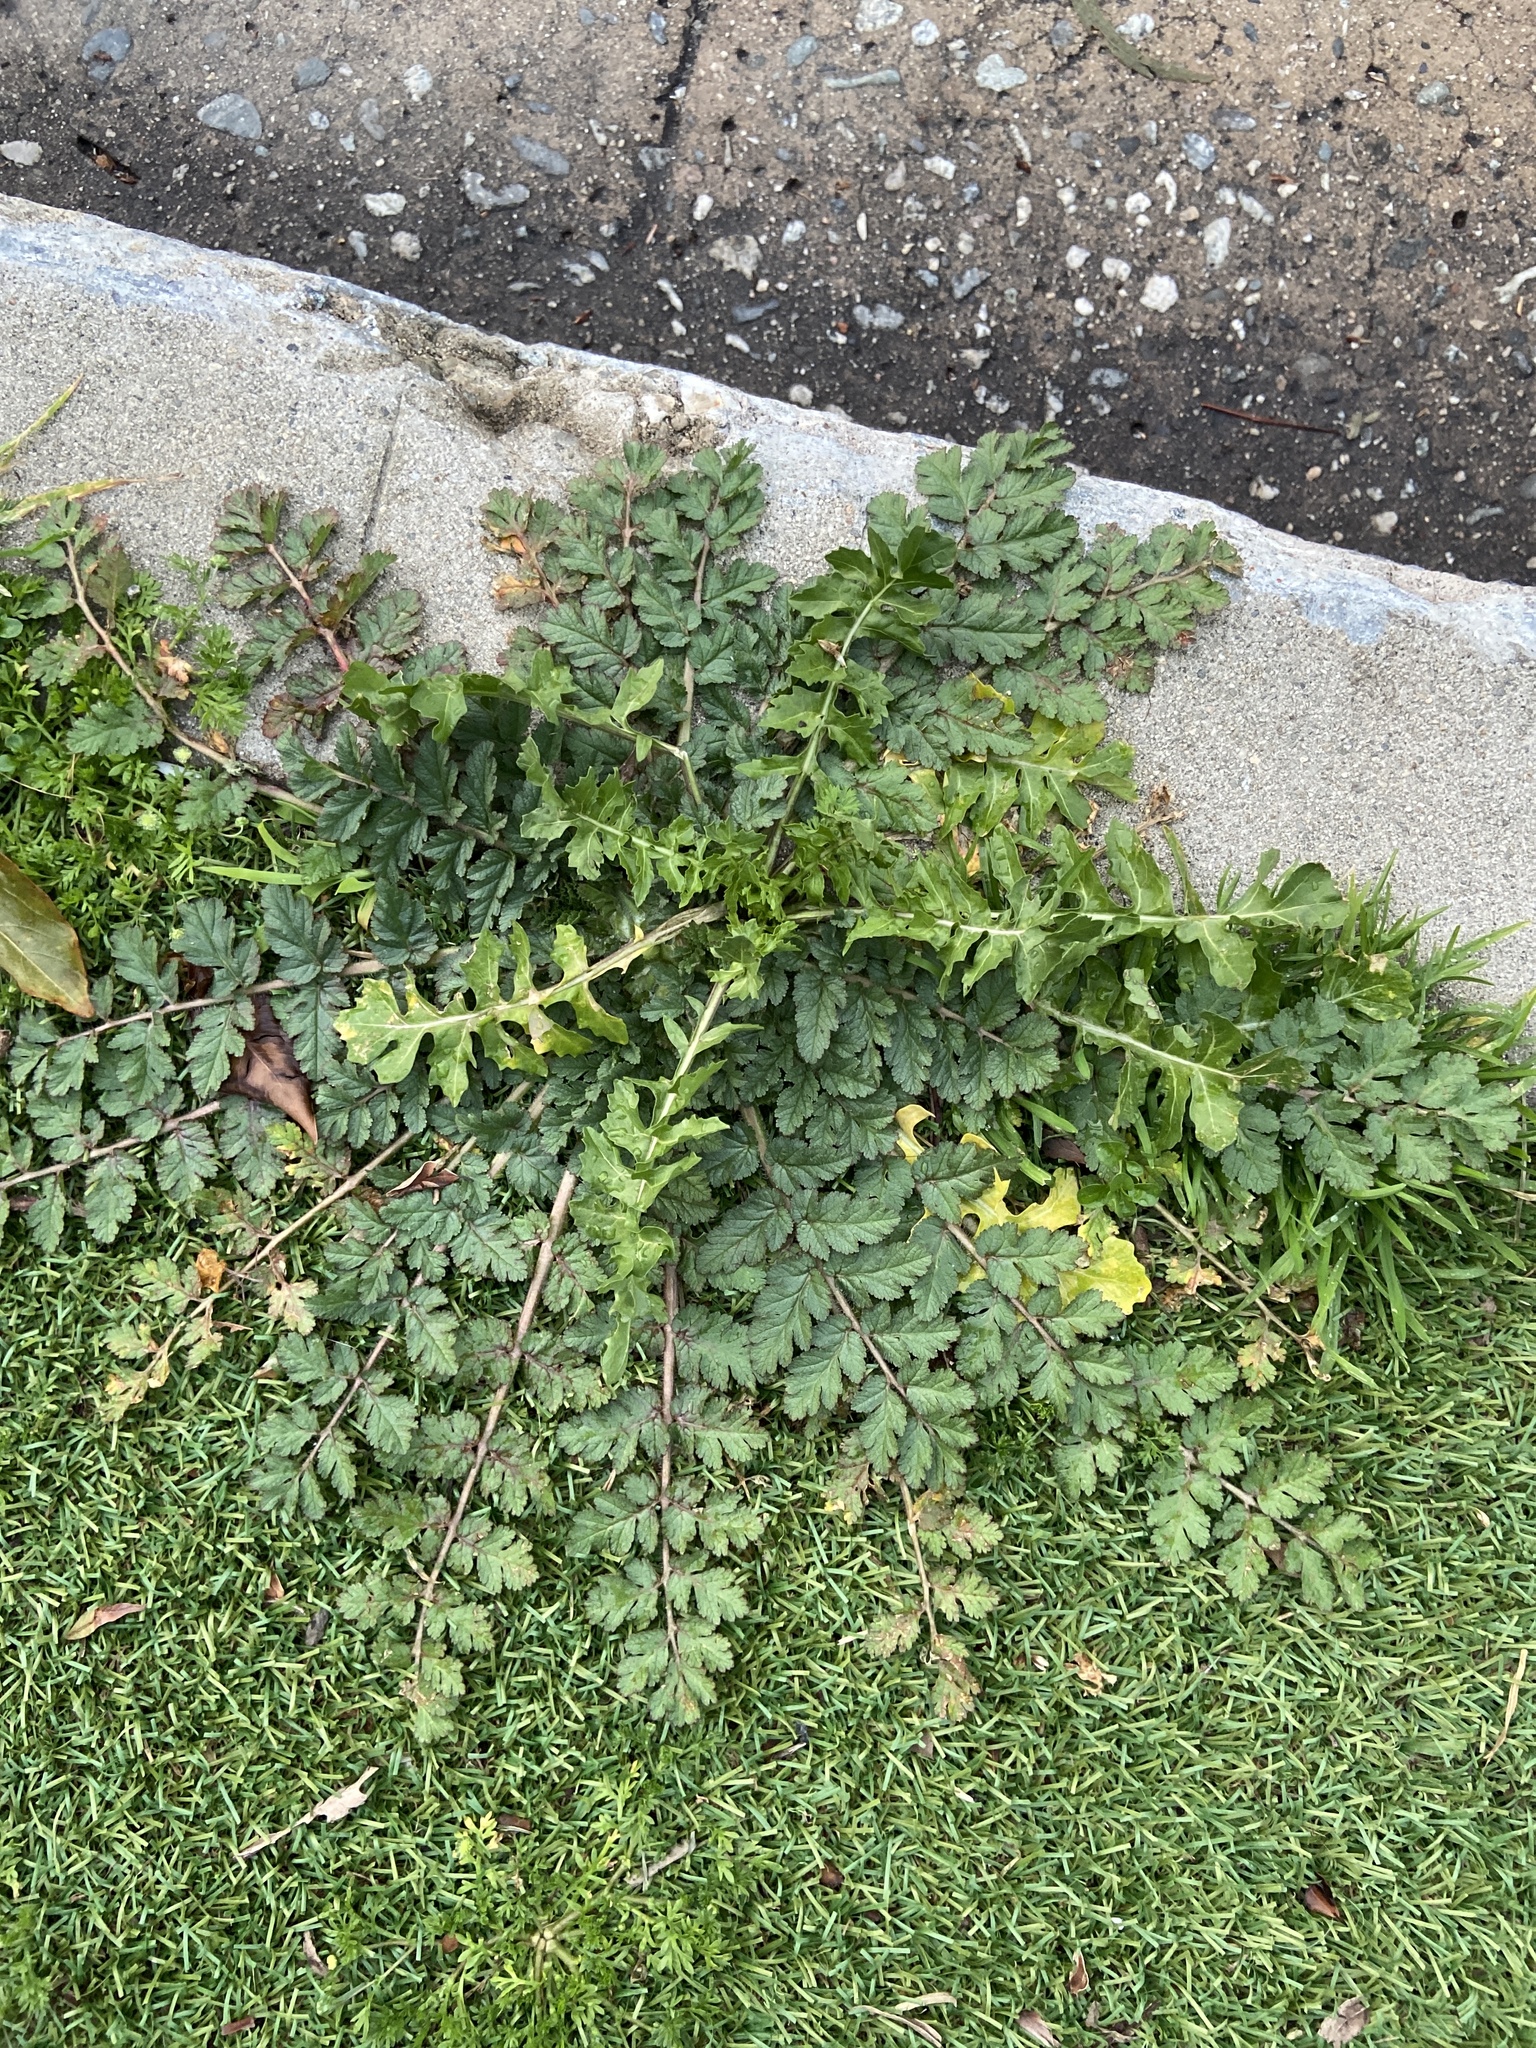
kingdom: Plantae
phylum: Tracheophyta
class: Magnoliopsida
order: Geraniales
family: Geraniaceae
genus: Erodium
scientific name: Erodium moschatum
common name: Musk stork's-bill
